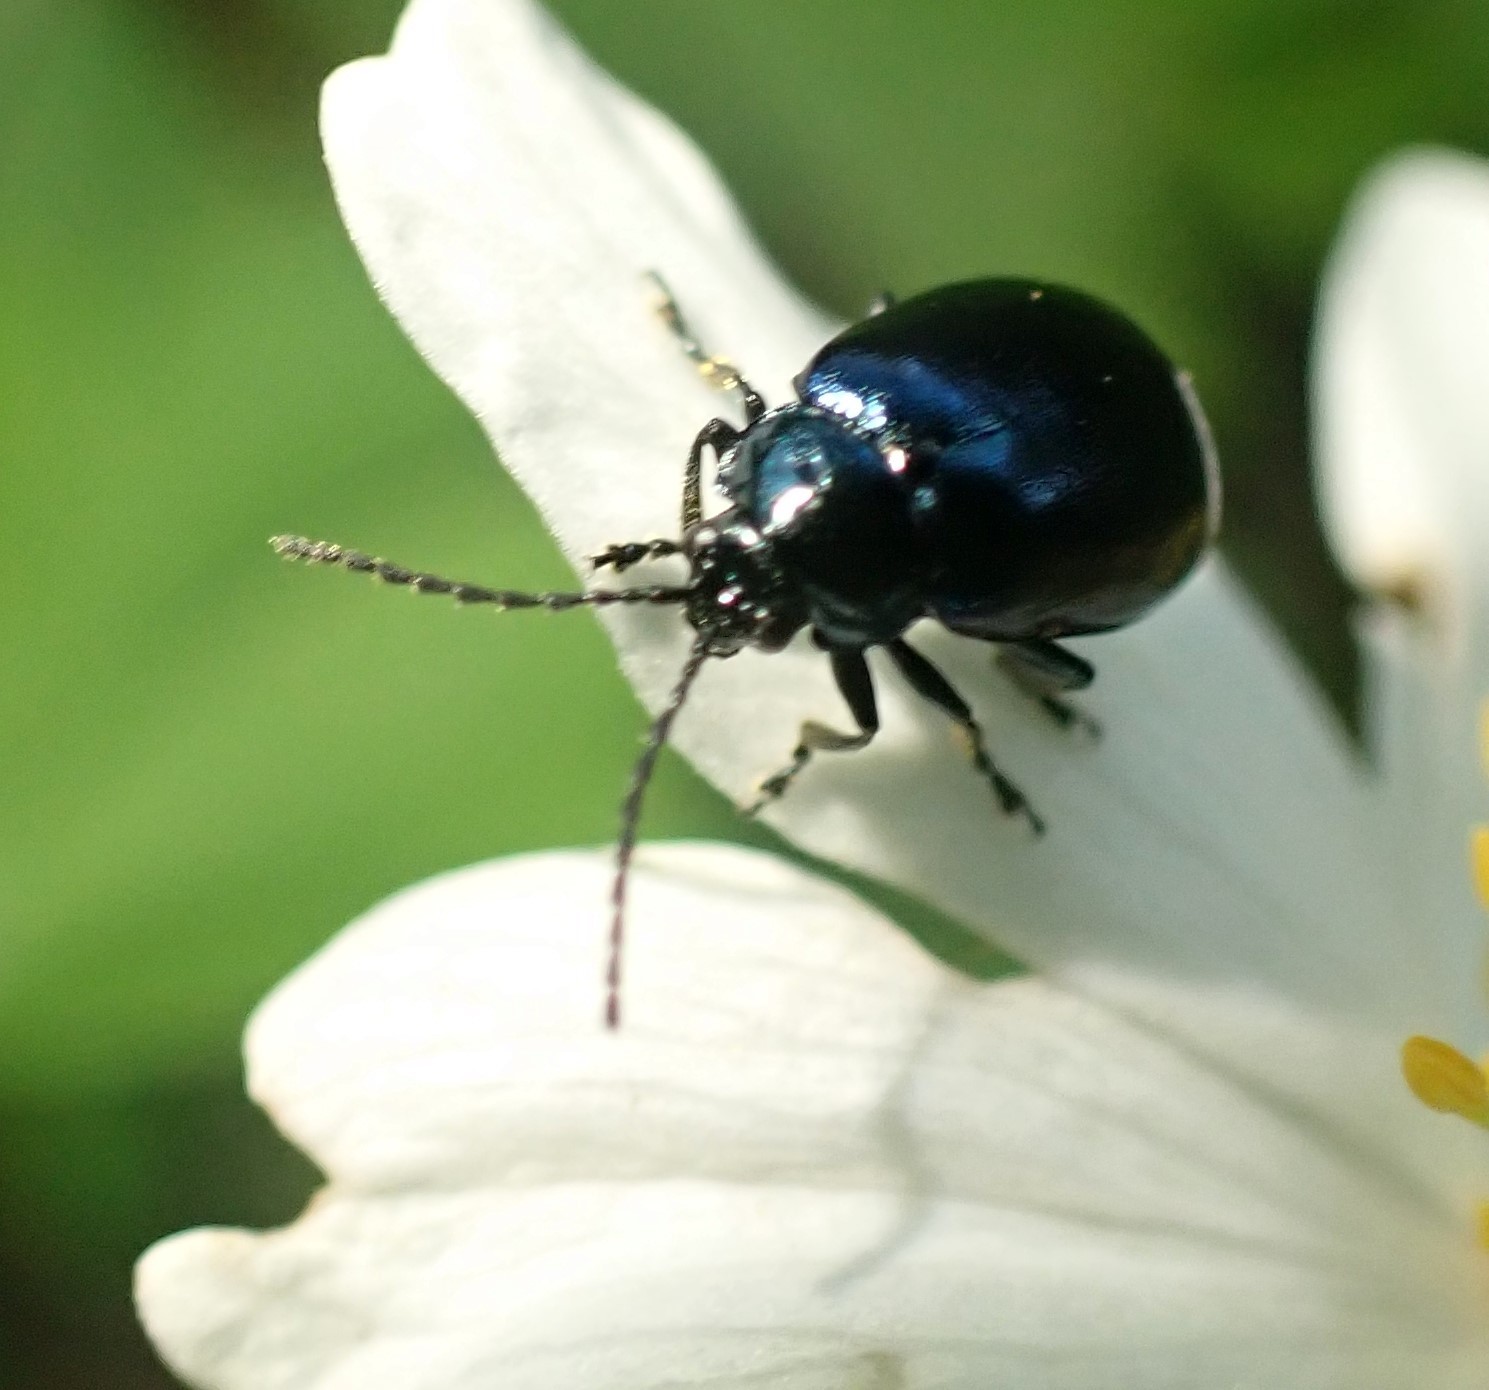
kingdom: Animalia
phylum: Arthropoda
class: Insecta
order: Coleoptera
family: Chrysomelidae
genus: Agelastica
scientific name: Agelastica alni
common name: Alder leaf beetle
